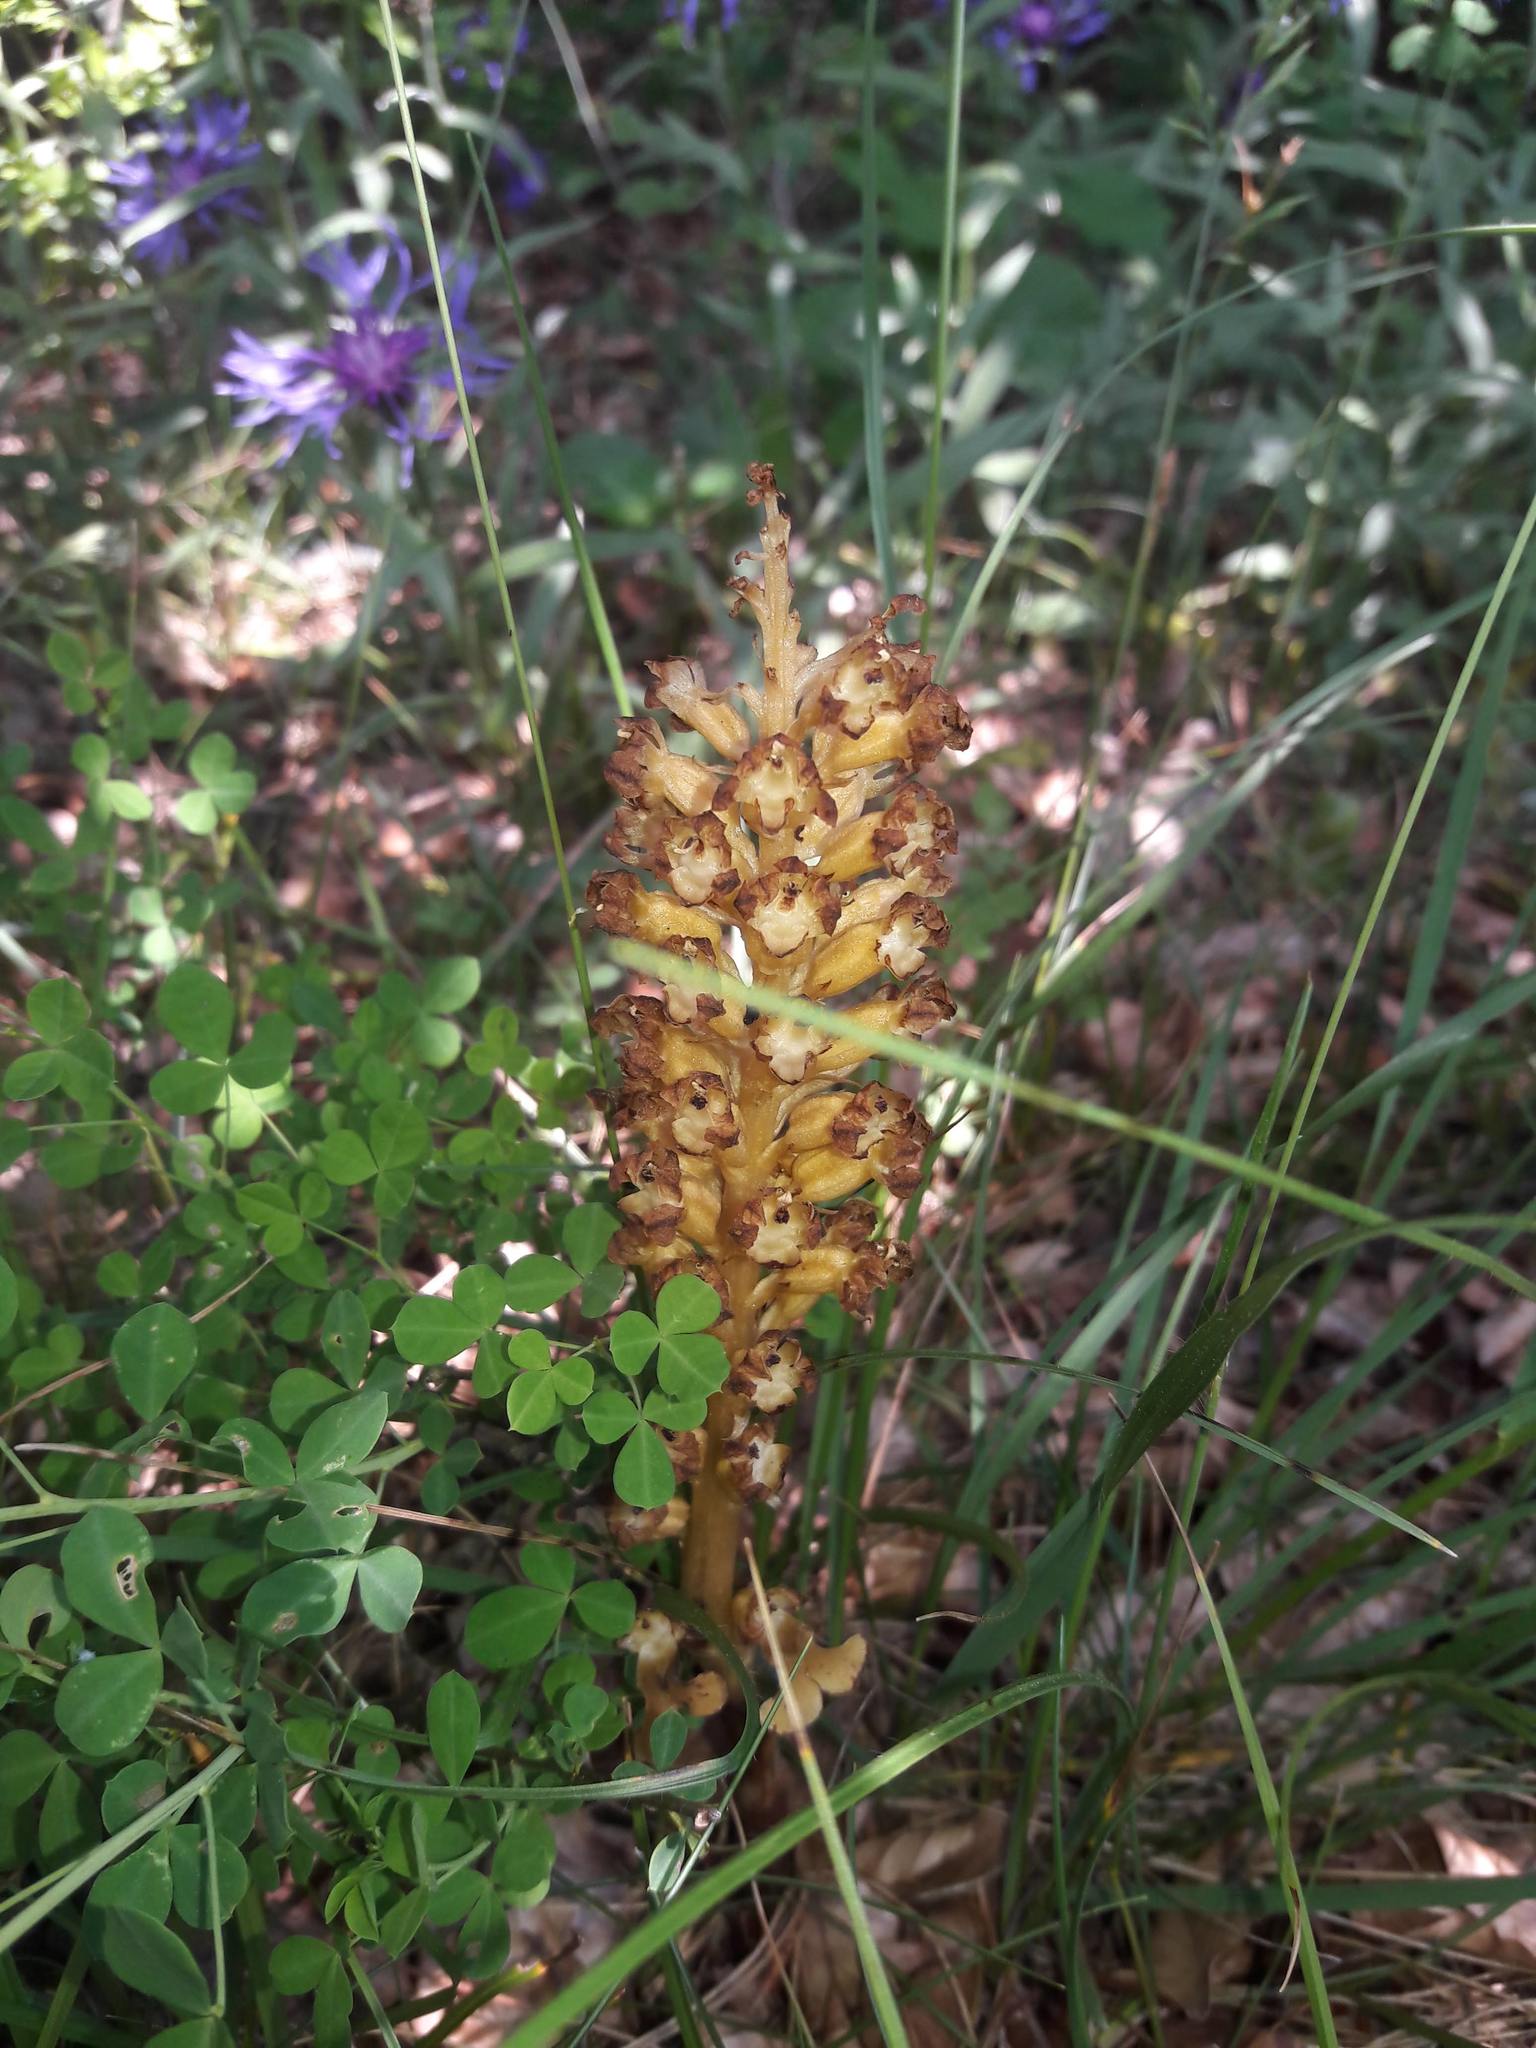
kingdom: Plantae
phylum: Tracheophyta
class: Liliopsida
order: Asparagales
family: Orchidaceae
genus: Neottia
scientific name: Neottia nidus-avis
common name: Bird's-nest orchid
